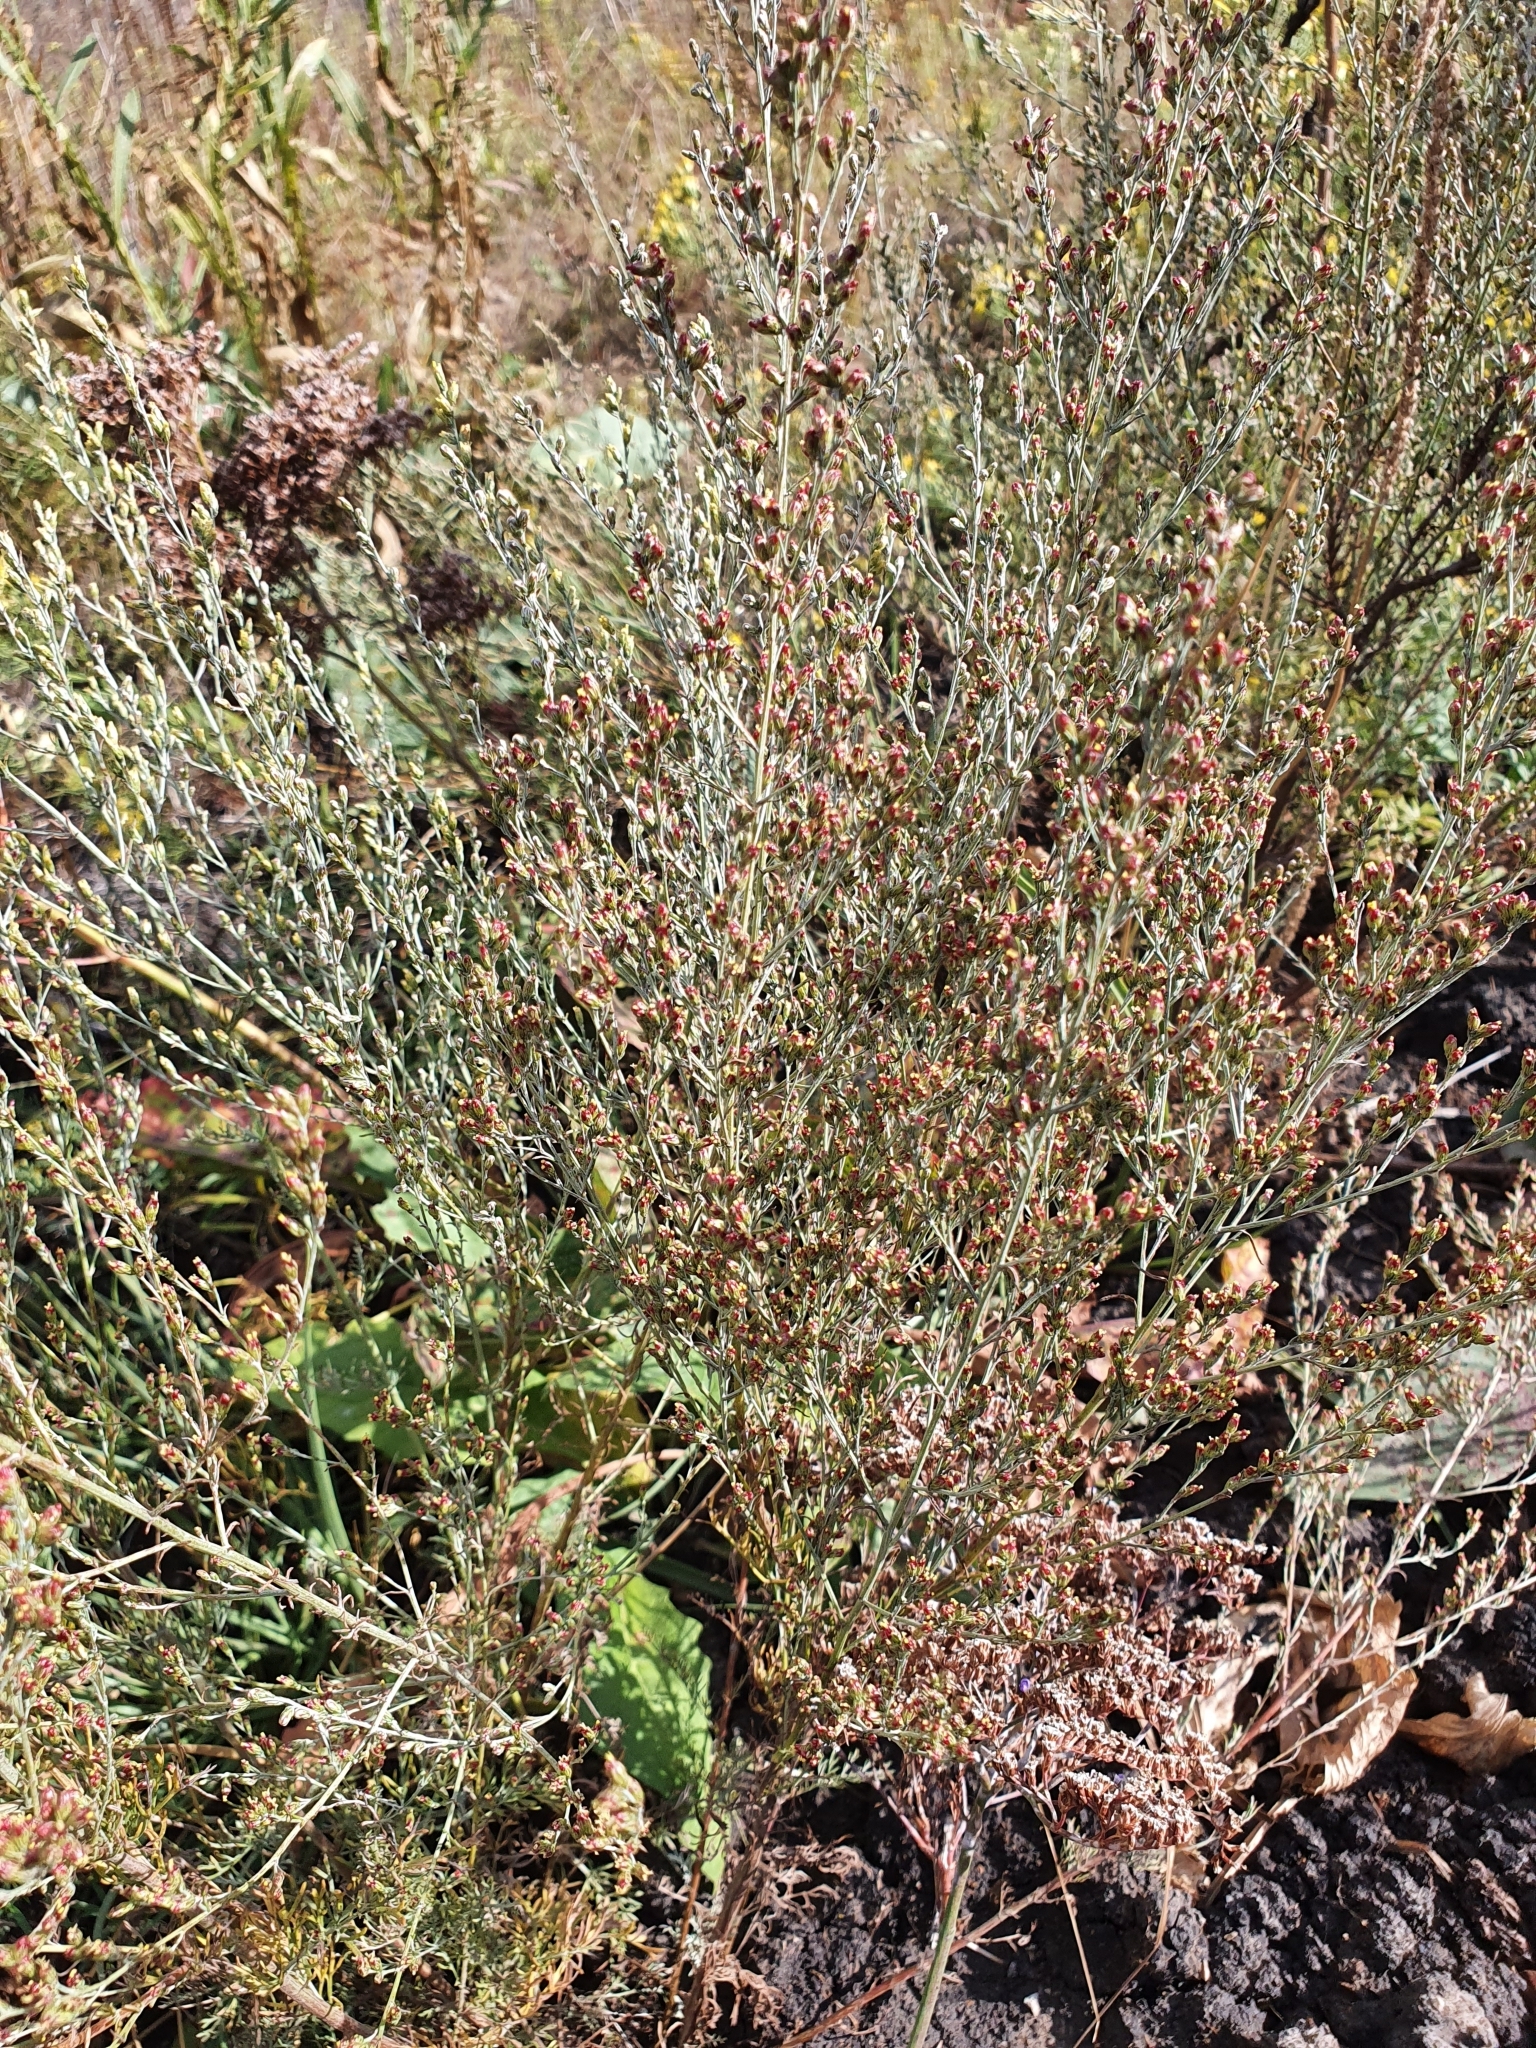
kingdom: Plantae
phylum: Tracheophyta
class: Magnoliopsida
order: Asterales
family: Asteraceae
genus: Artemisia
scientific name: Artemisia santonicum
